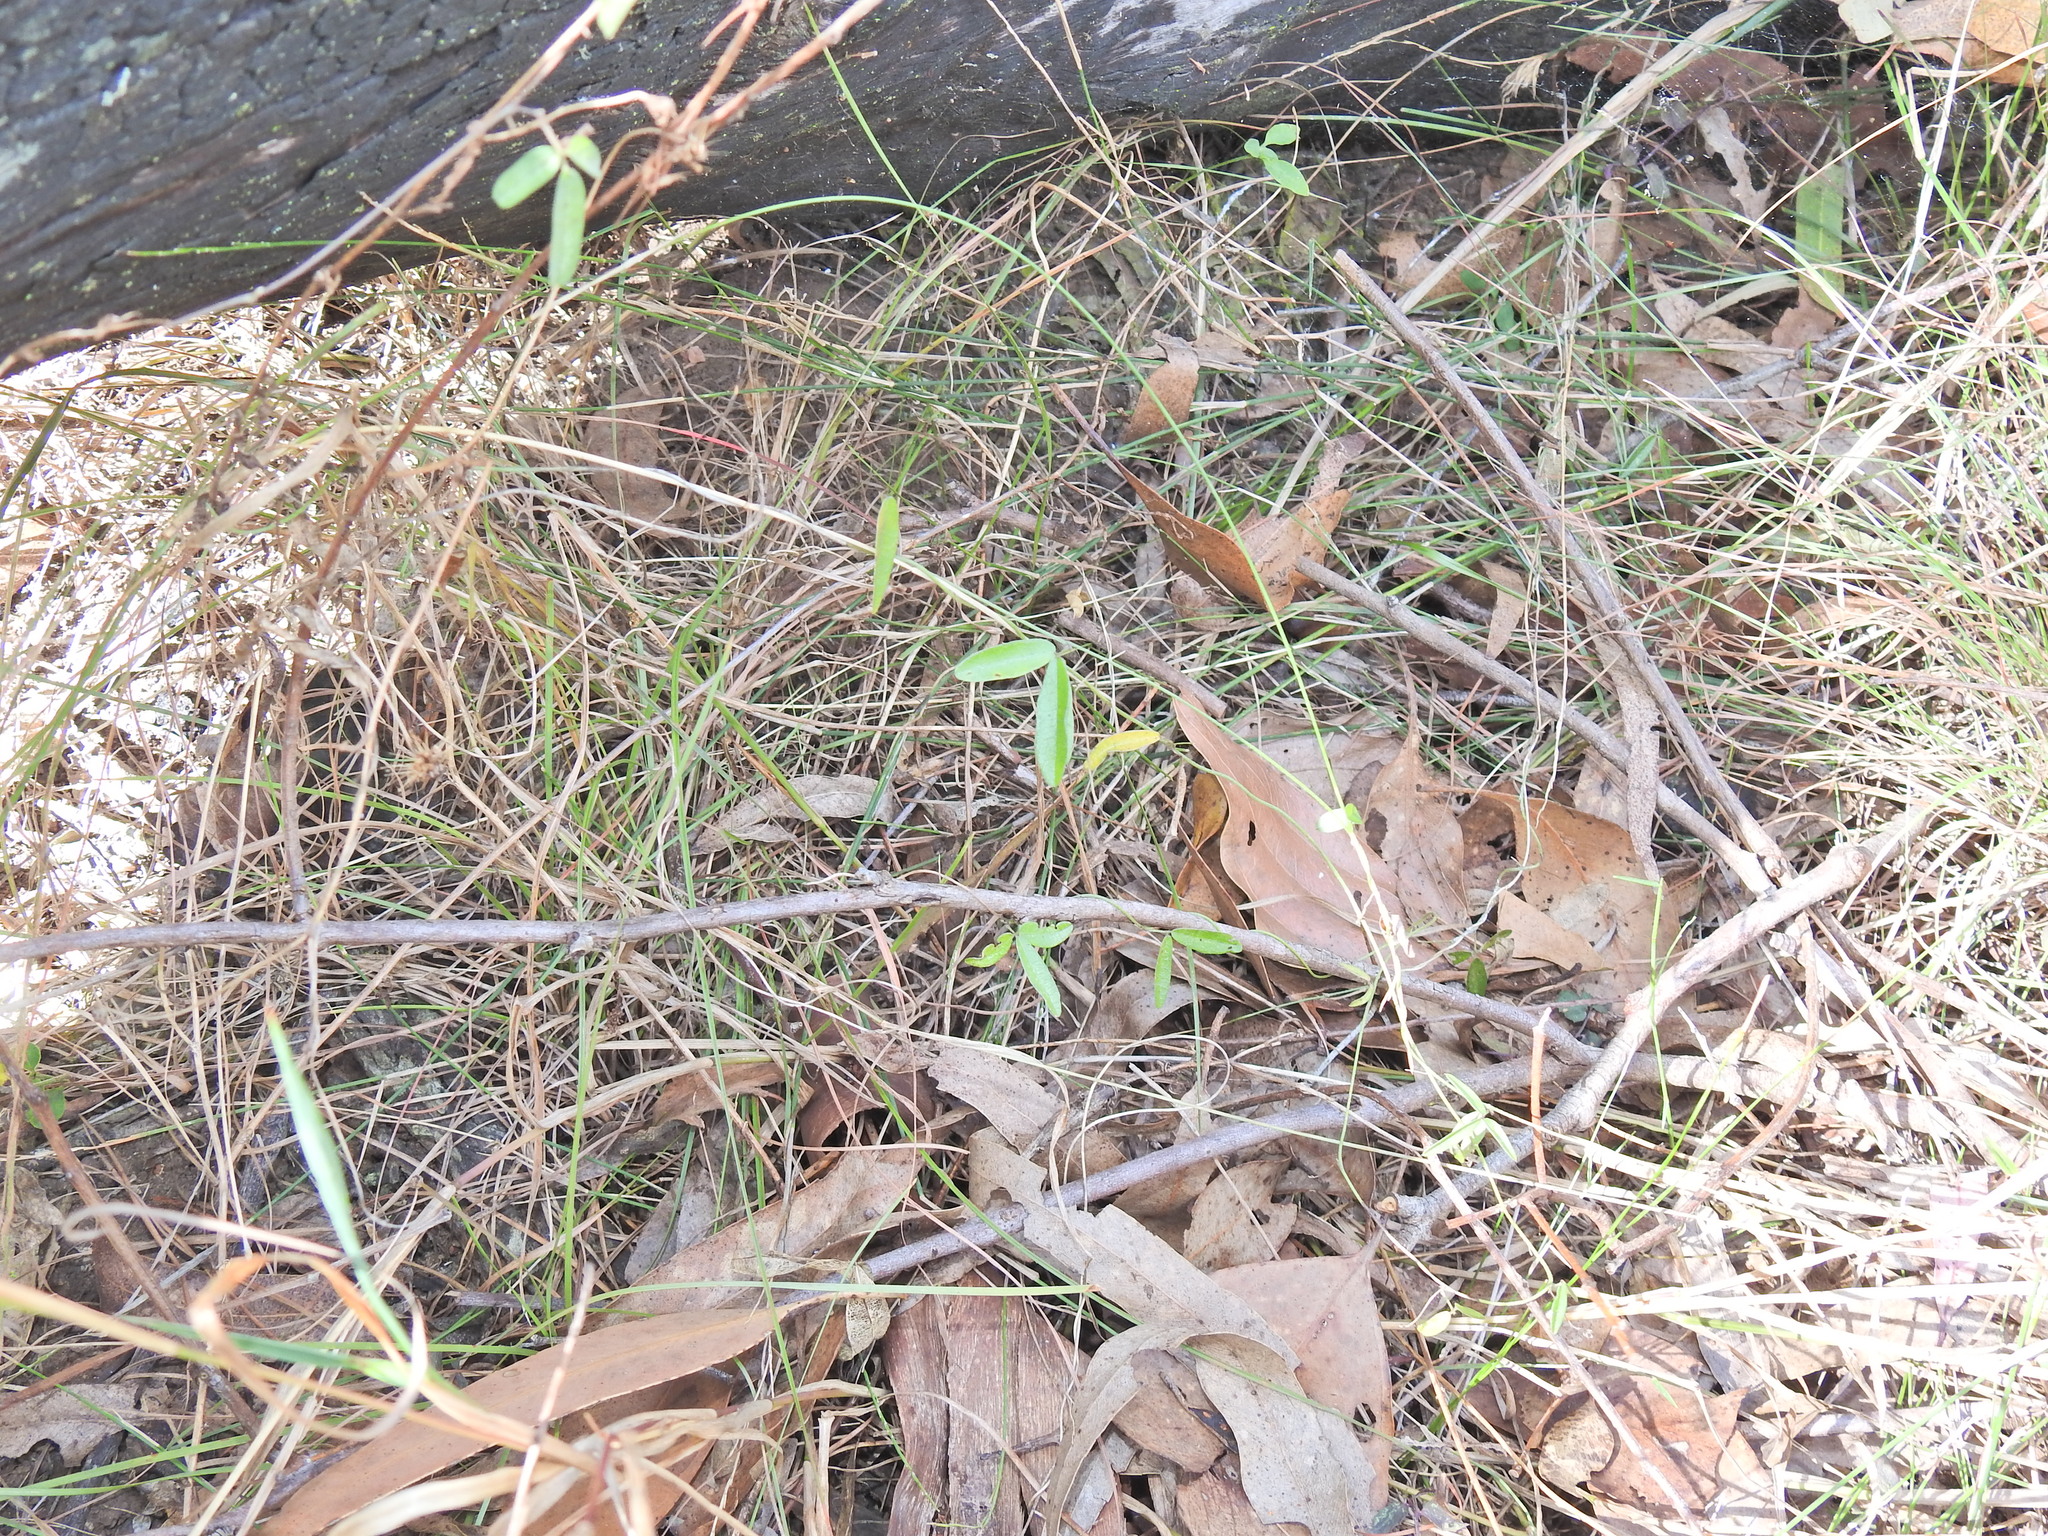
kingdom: Plantae
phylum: Tracheophyta
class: Magnoliopsida
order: Fabales
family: Fabaceae
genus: Glycine
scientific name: Glycine cyrtoloba
